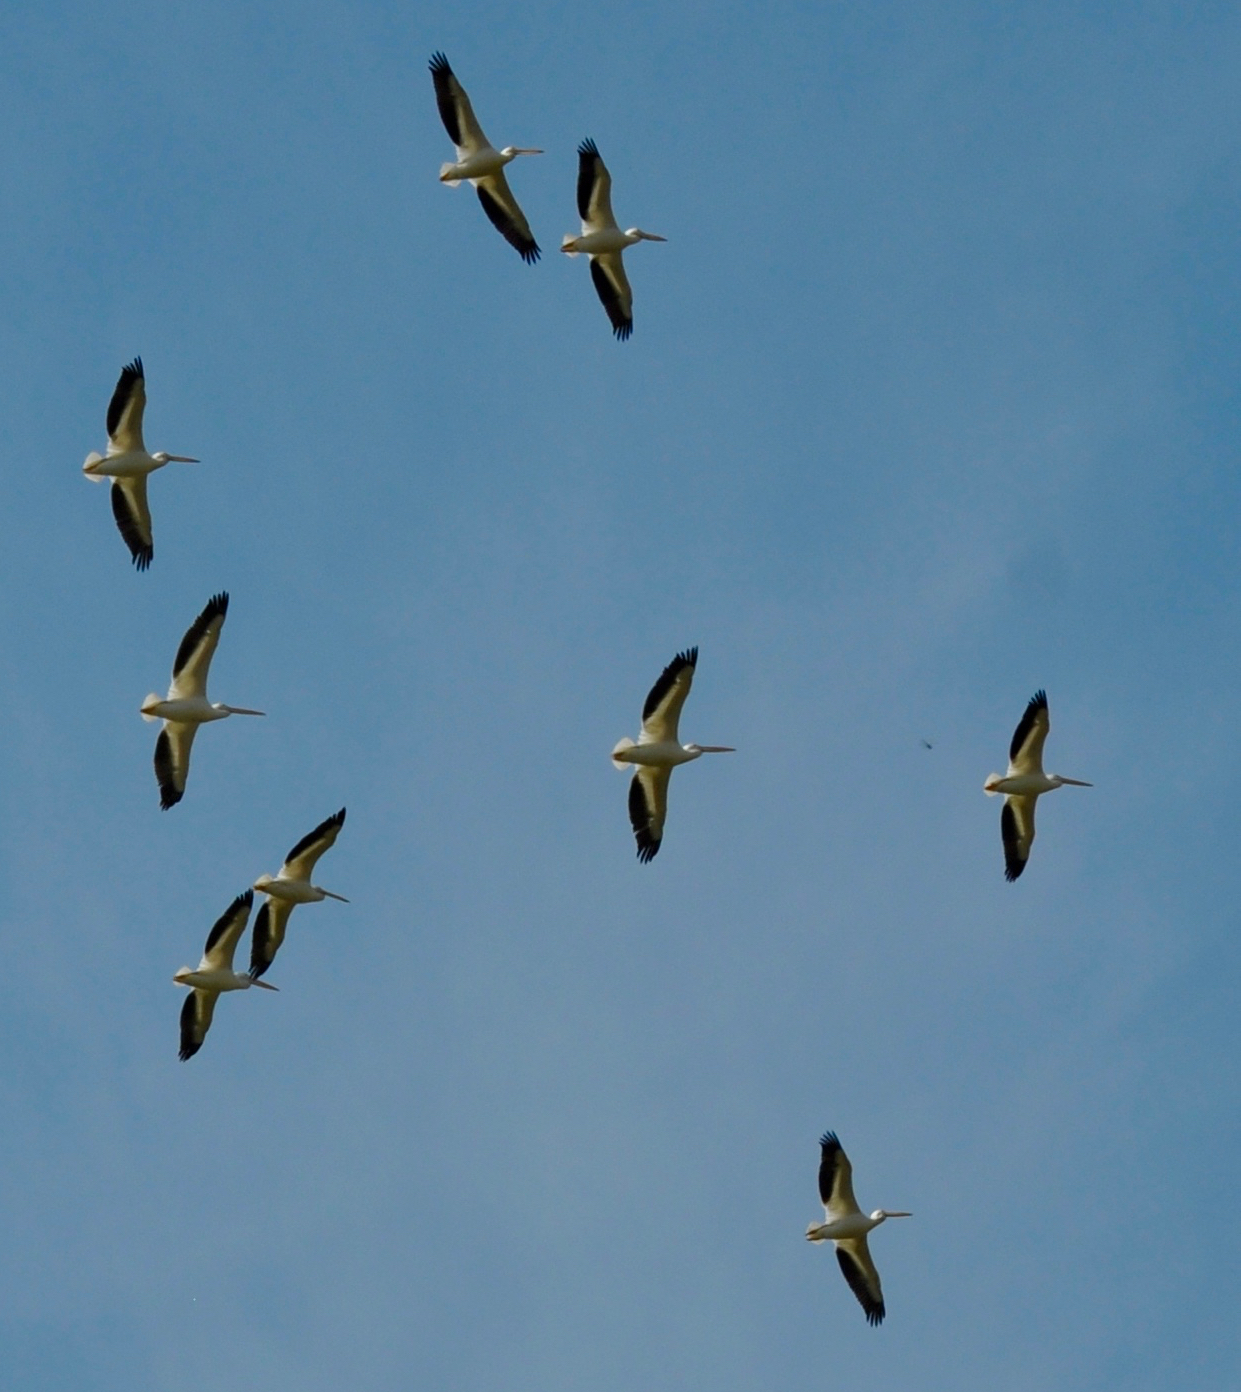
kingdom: Animalia
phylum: Chordata
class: Aves
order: Pelecaniformes
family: Pelecanidae
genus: Pelecanus
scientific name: Pelecanus erythrorhynchos
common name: American white pelican
